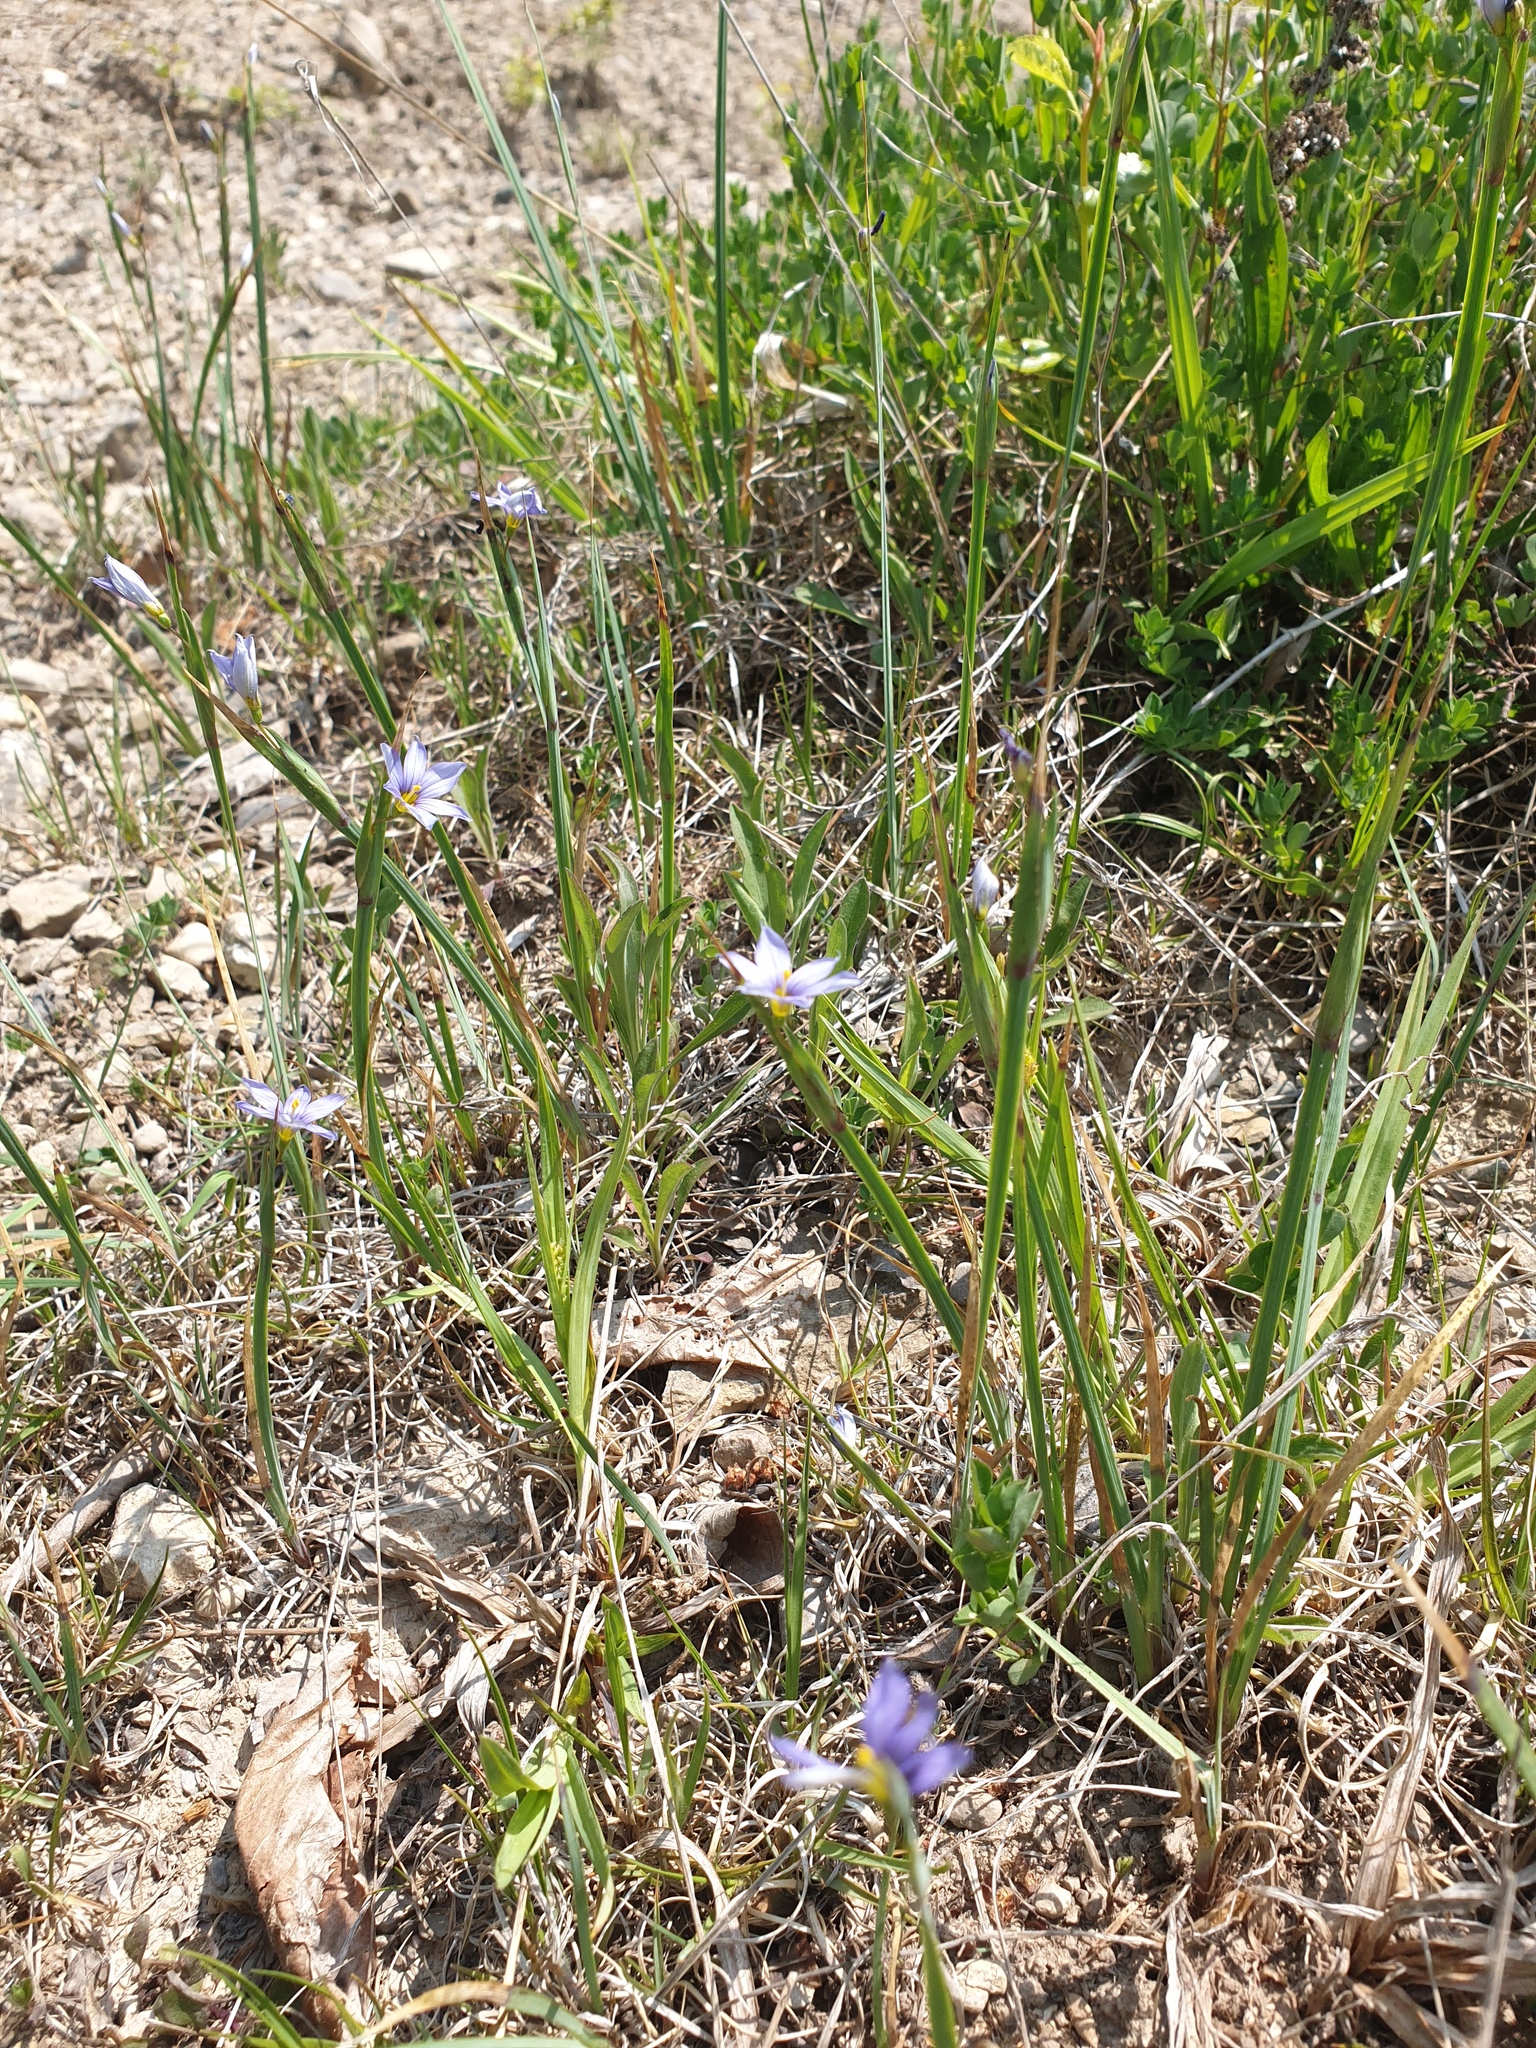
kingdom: Plantae
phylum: Tracheophyta
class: Liliopsida
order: Asparagales
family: Iridaceae
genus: Sisyrinchium
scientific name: Sisyrinchium montanum
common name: American blue-eyed-grass
